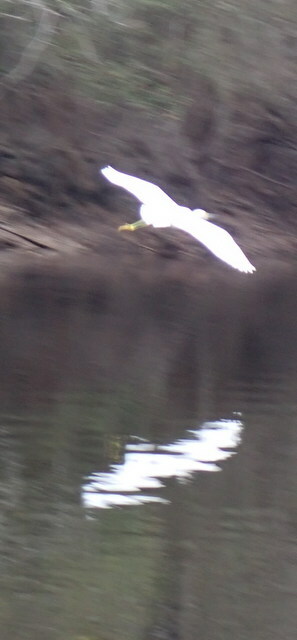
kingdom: Animalia
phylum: Chordata
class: Aves
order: Pelecaniformes
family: Ardeidae
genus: Egretta
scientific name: Egretta thula
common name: Snowy egret
